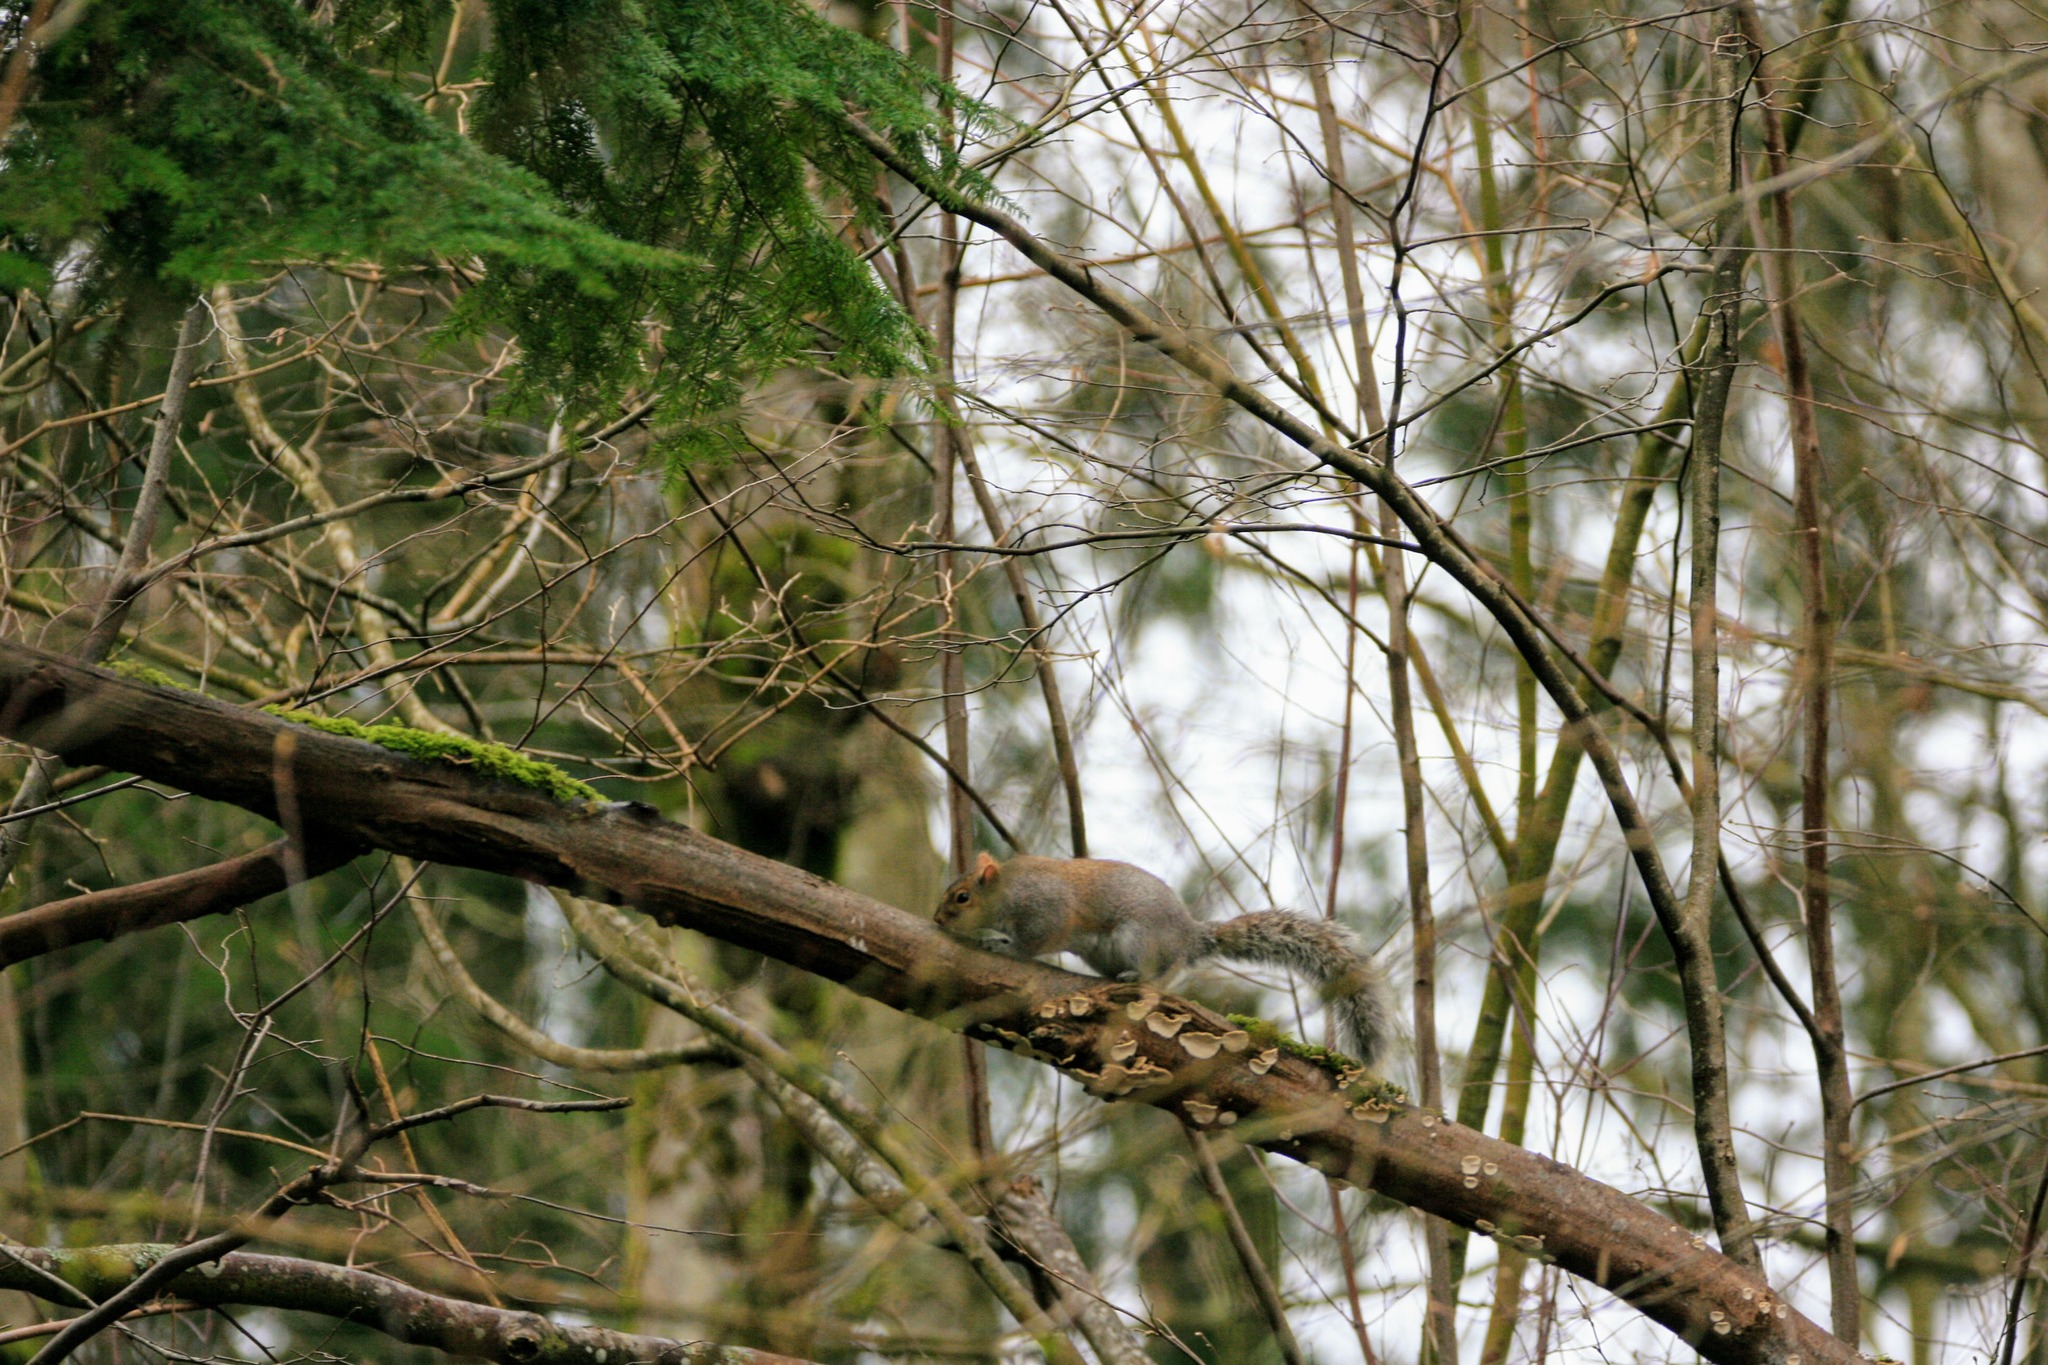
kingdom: Animalia
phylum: Chordata
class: Mammalia
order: Rodentia
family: Sciuridae
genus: Sciurus
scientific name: Sciurus carolinensis
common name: Eastern gray squirrel
